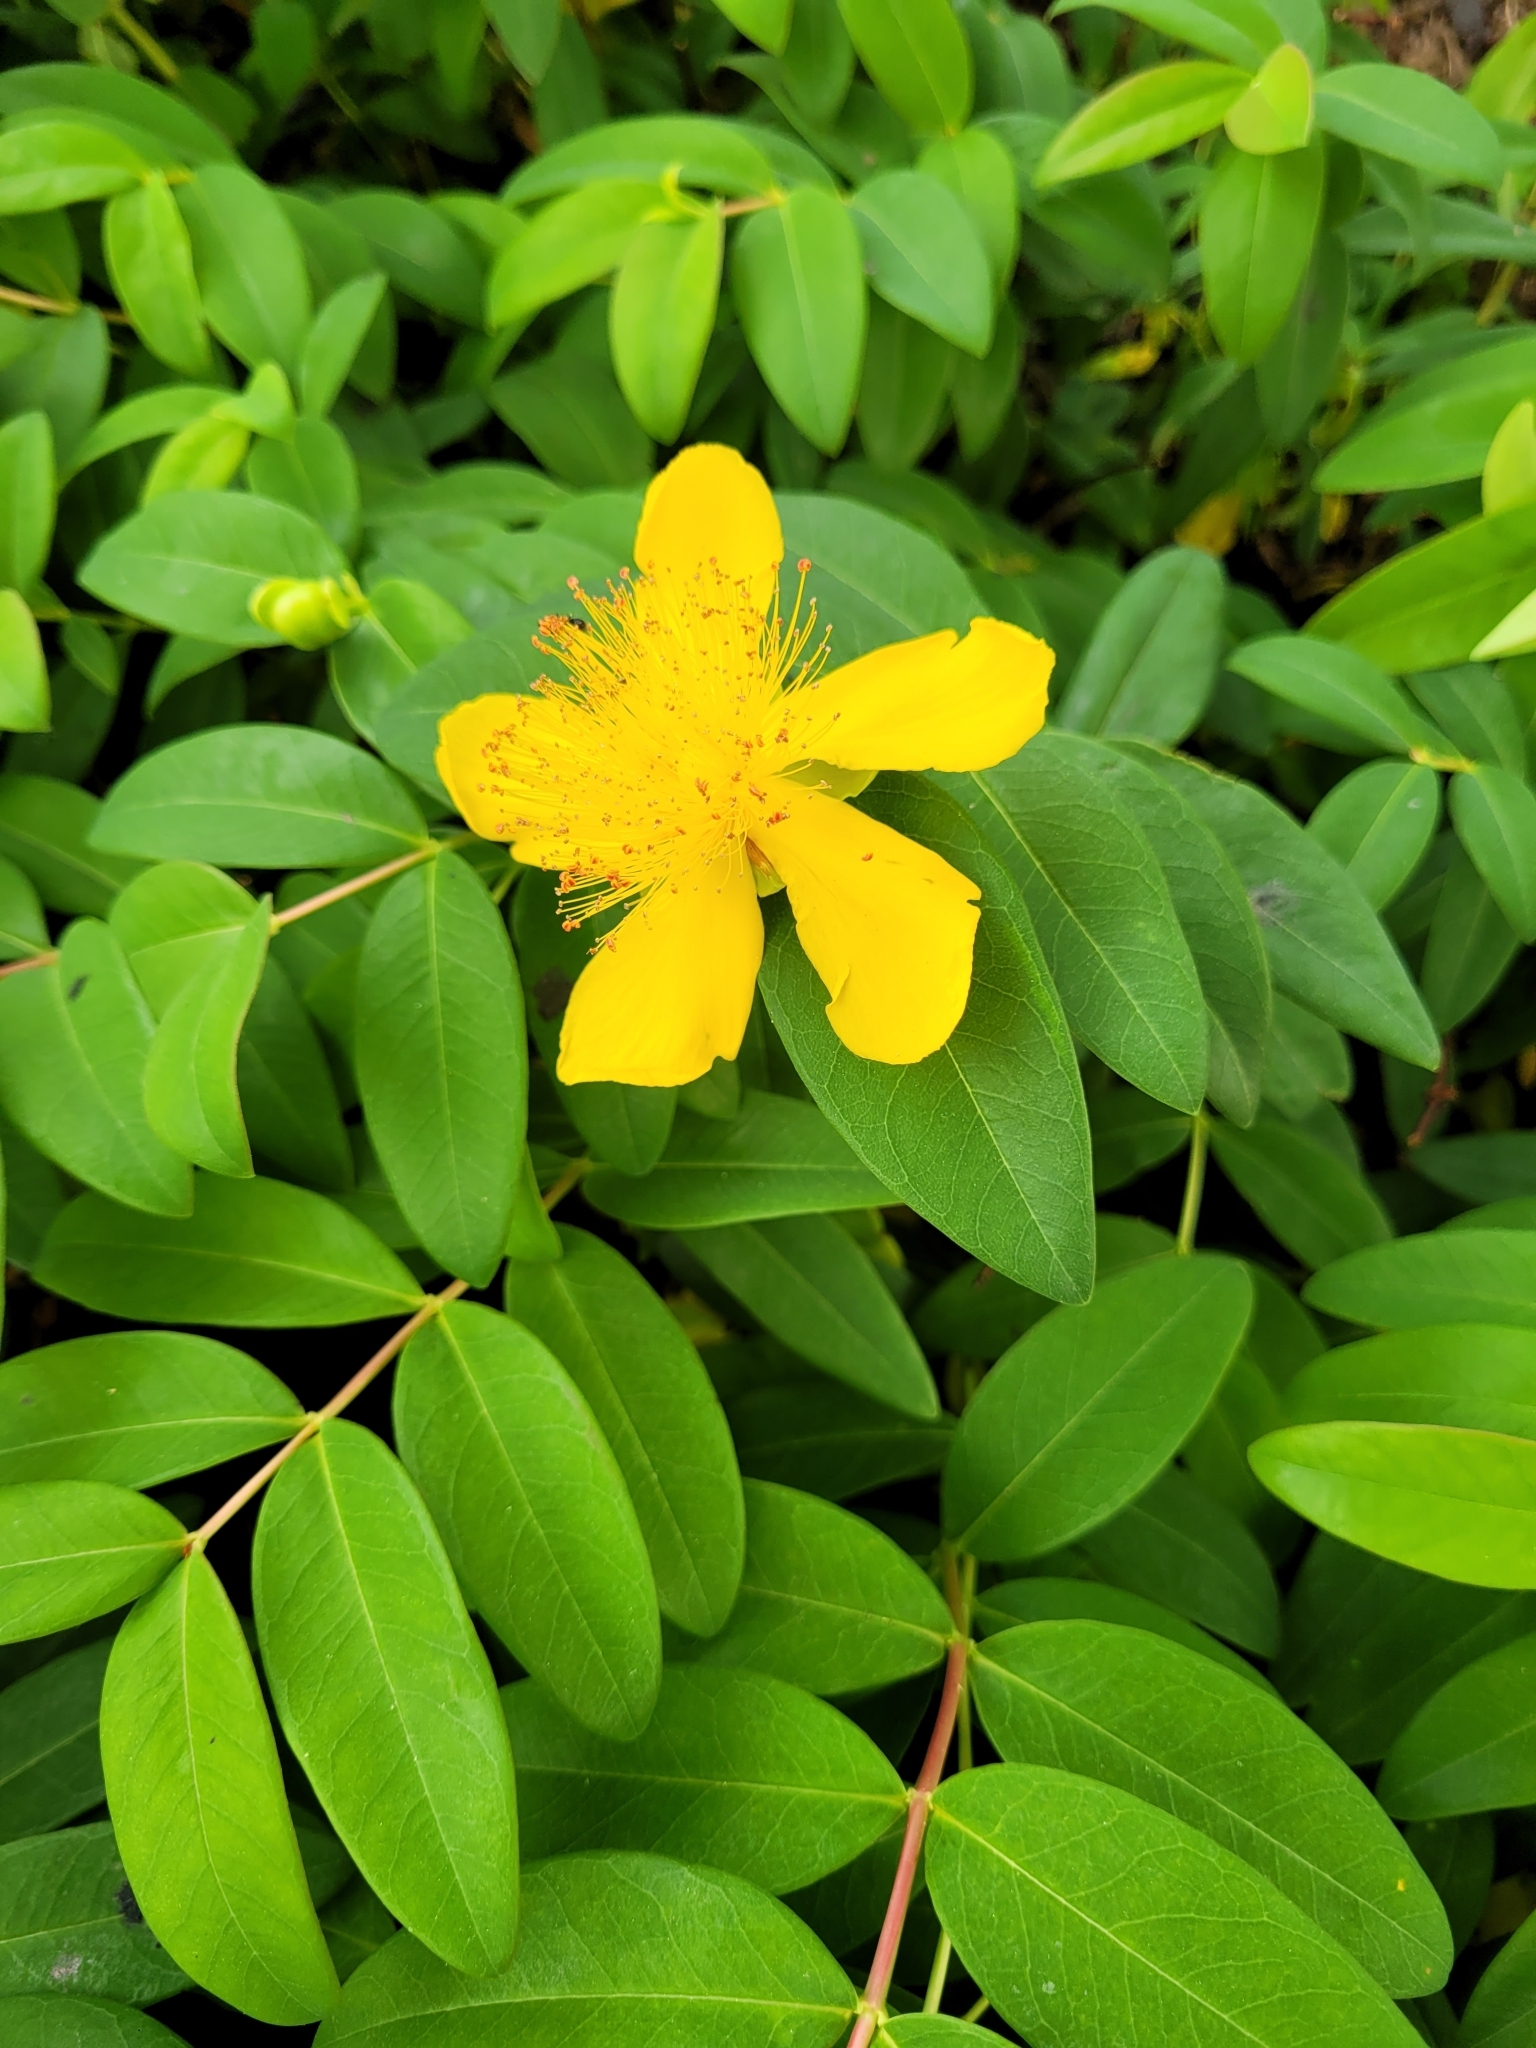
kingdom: Plantae
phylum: Tracheophyta
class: Magnoliopsida
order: Malpighiales
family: Hypericaceae
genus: Hypericum
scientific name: Hypericum calycinum
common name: Rose-of-sharon
